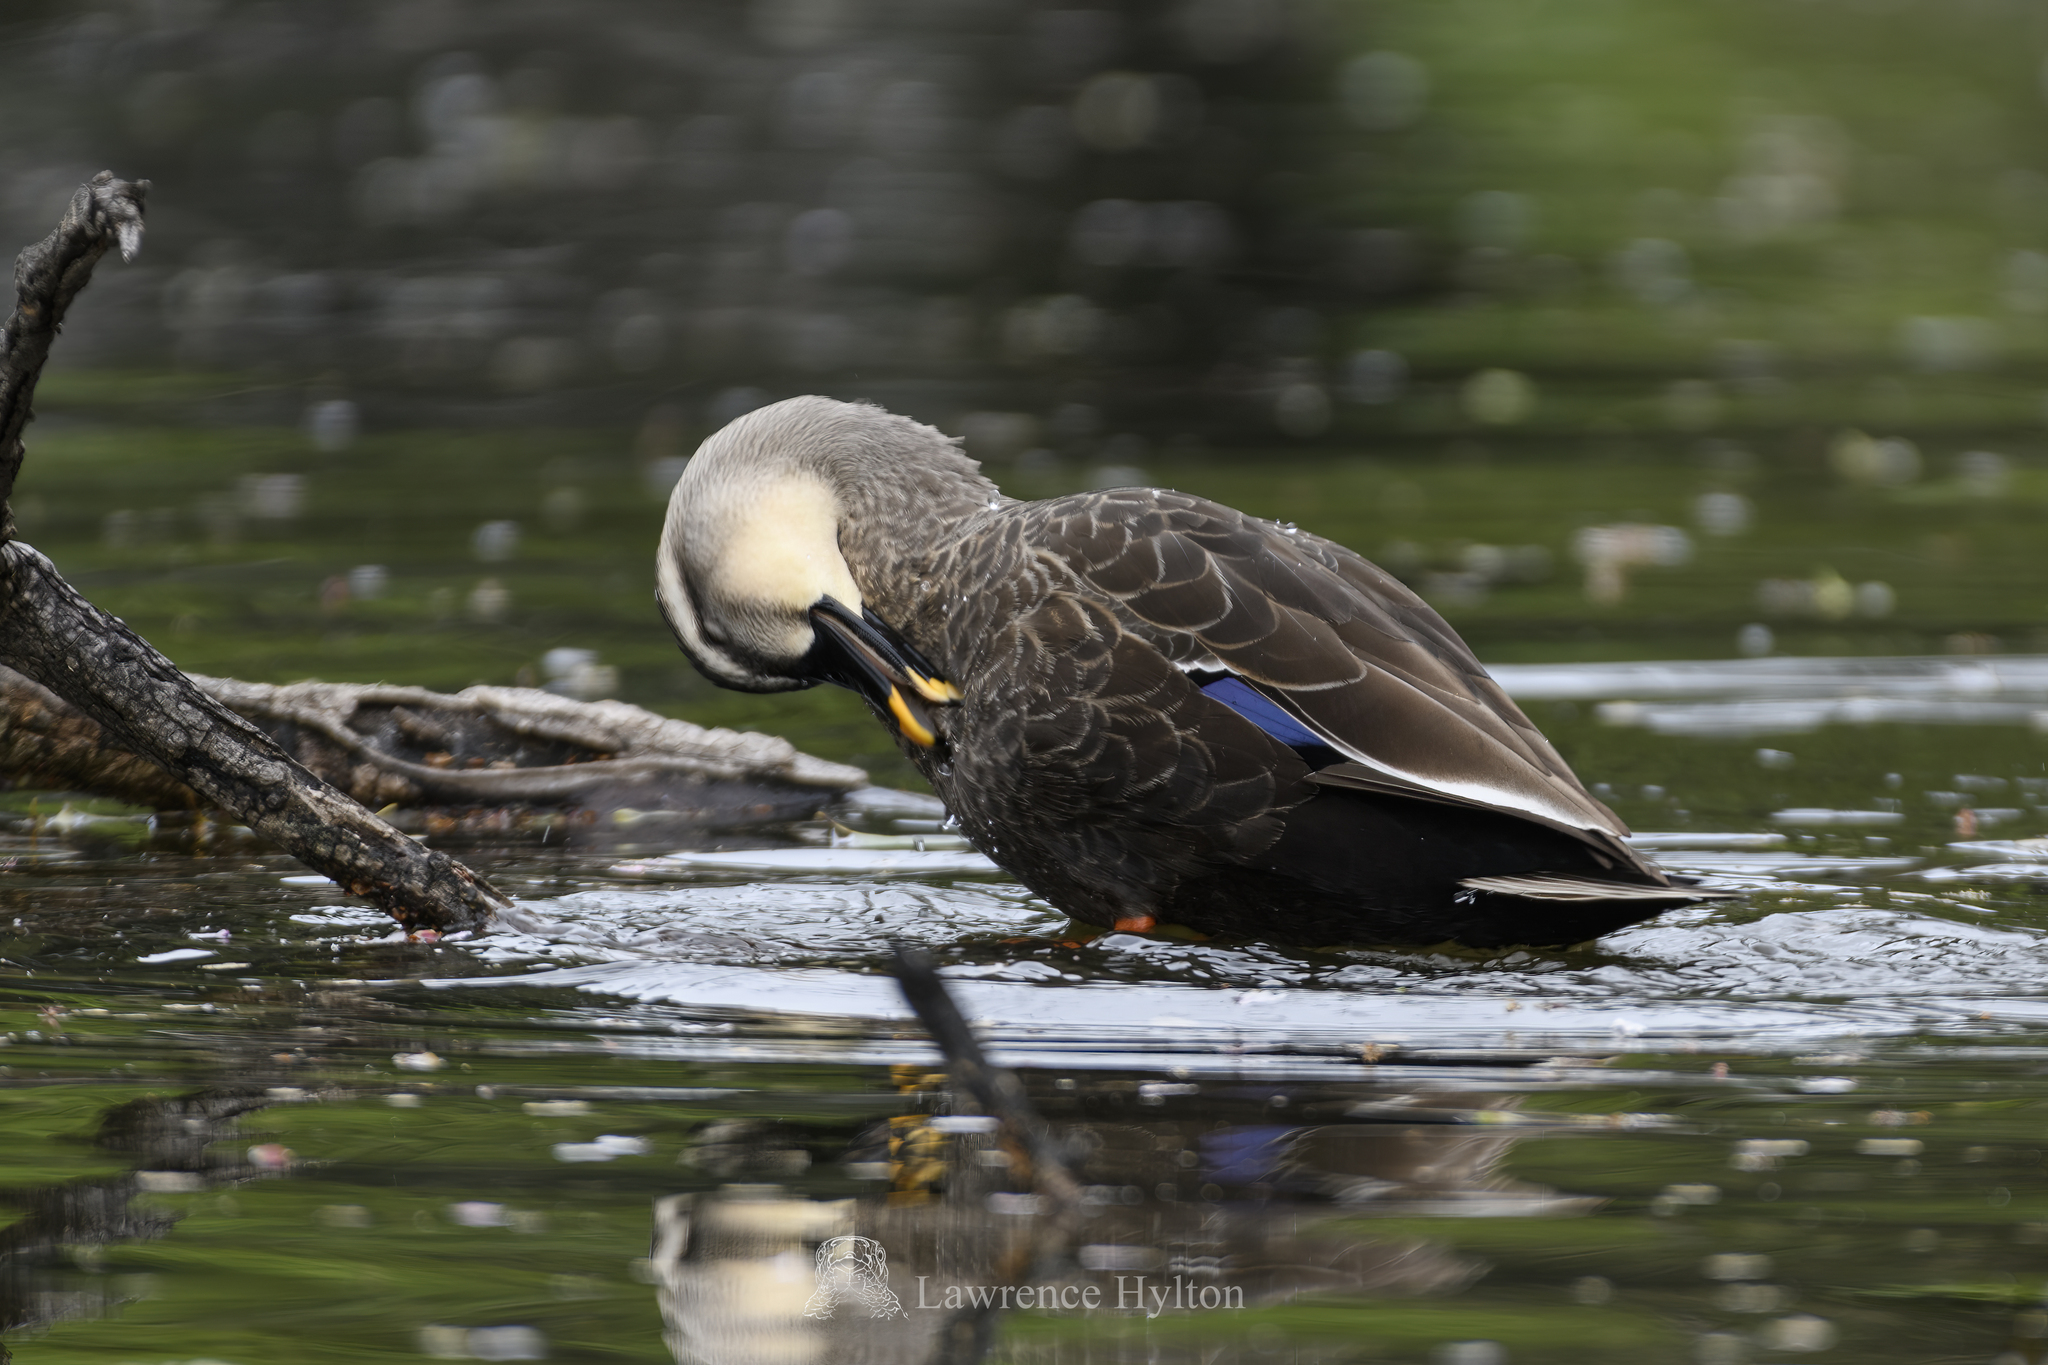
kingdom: Animalia
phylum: Chordata
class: Aves
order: Anseriformes
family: Anatidae
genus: Anas
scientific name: Anas zonorhyncha
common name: Eastern spot-billed duck
